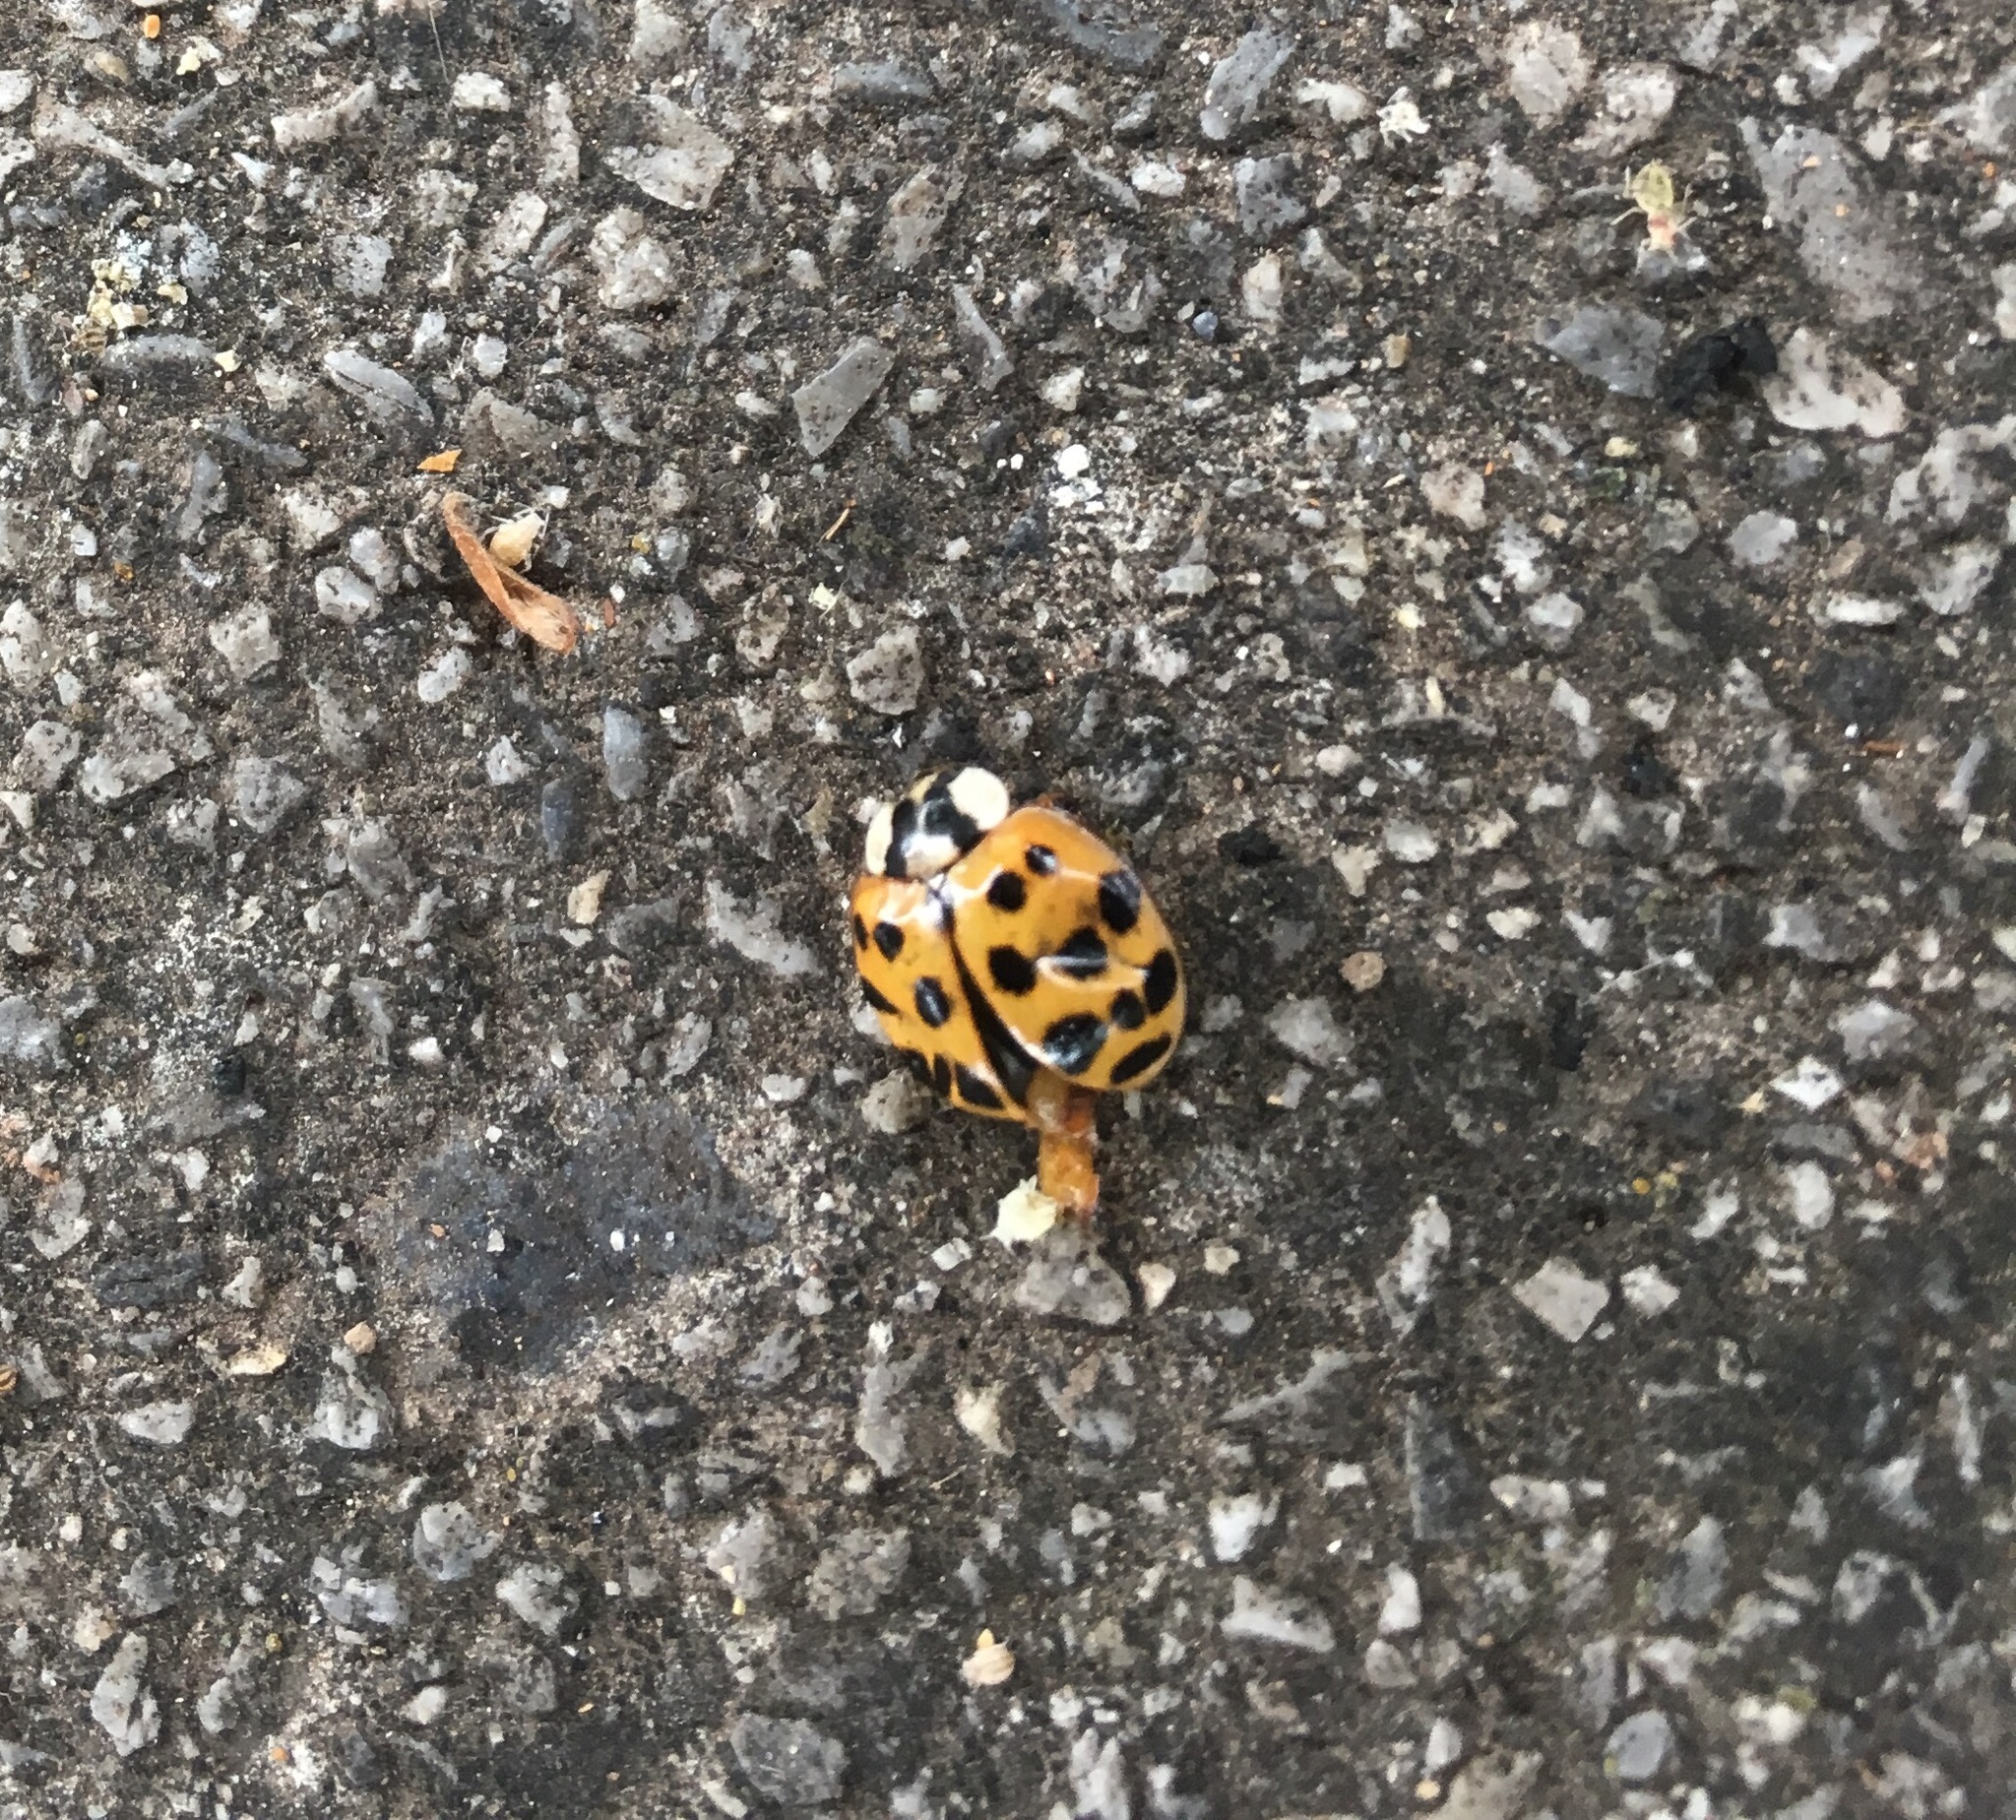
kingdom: Animalia
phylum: Arthropoda
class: Insecta
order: Coleoptera
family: Coccinellidae
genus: Harmonia
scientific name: Harmonia axyridis
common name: Harlequin ladybird
